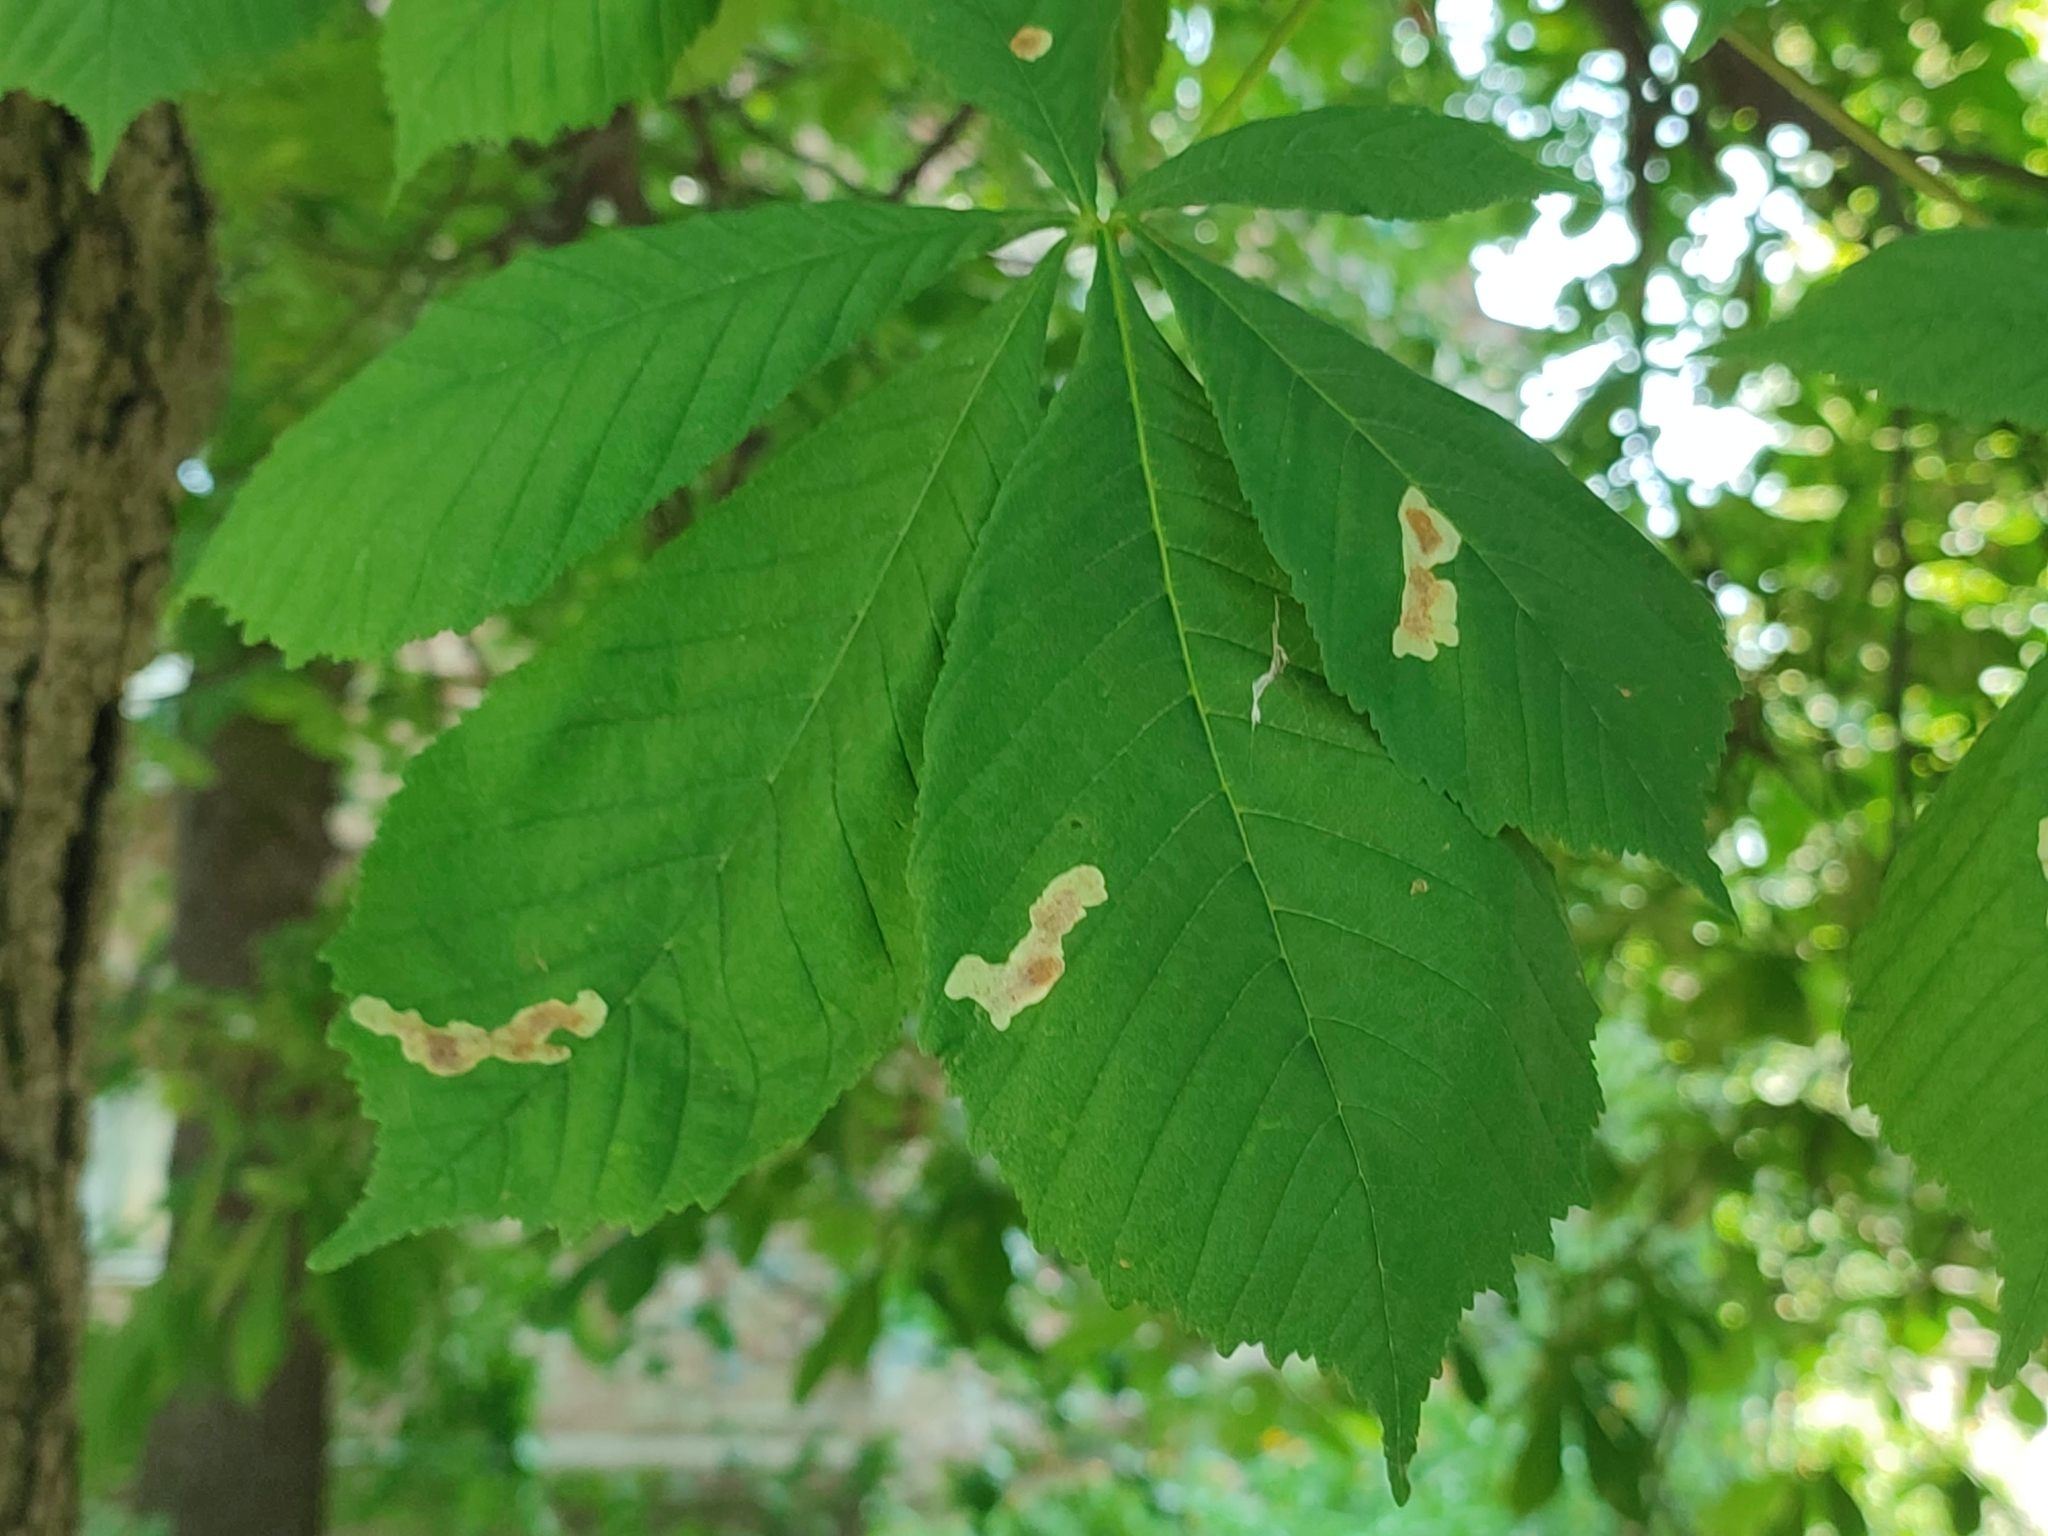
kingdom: Animalia
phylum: Arthropoda
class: Insecta
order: Lepidoptera
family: Gracillariidae
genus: Cameraria
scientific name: Cameraria ohridella
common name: Horse-chestnut leaf-miner
